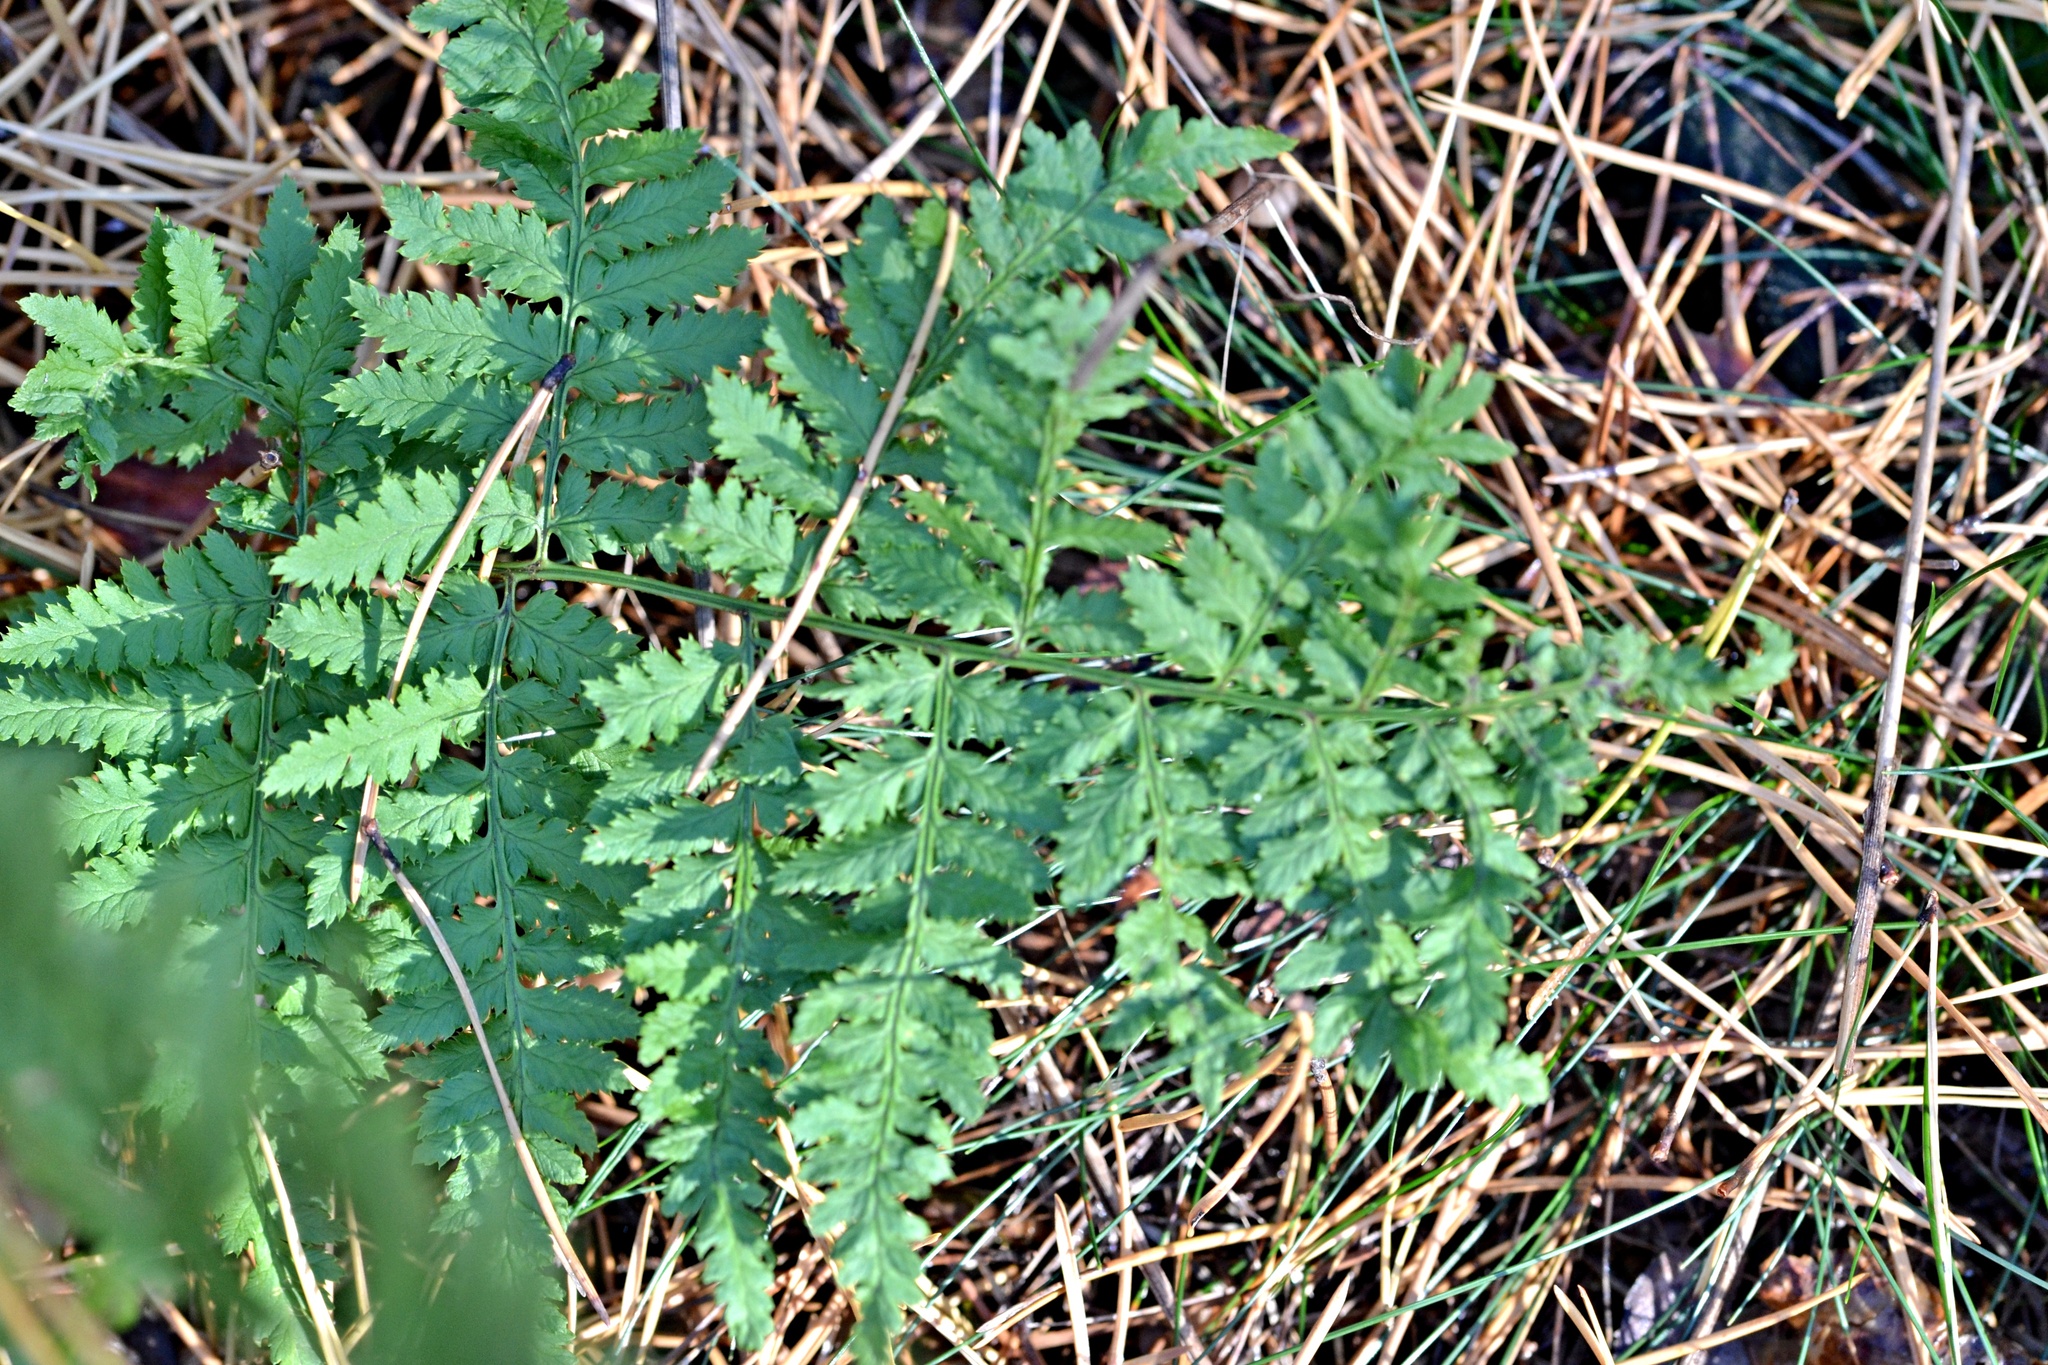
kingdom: Plantae
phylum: Tracheophyta
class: Polypodiopsida
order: Polypodiales
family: Dryopteridaceae
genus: Dryopteris
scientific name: Dryopteris carthusiana
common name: Narrow buckler-fern
